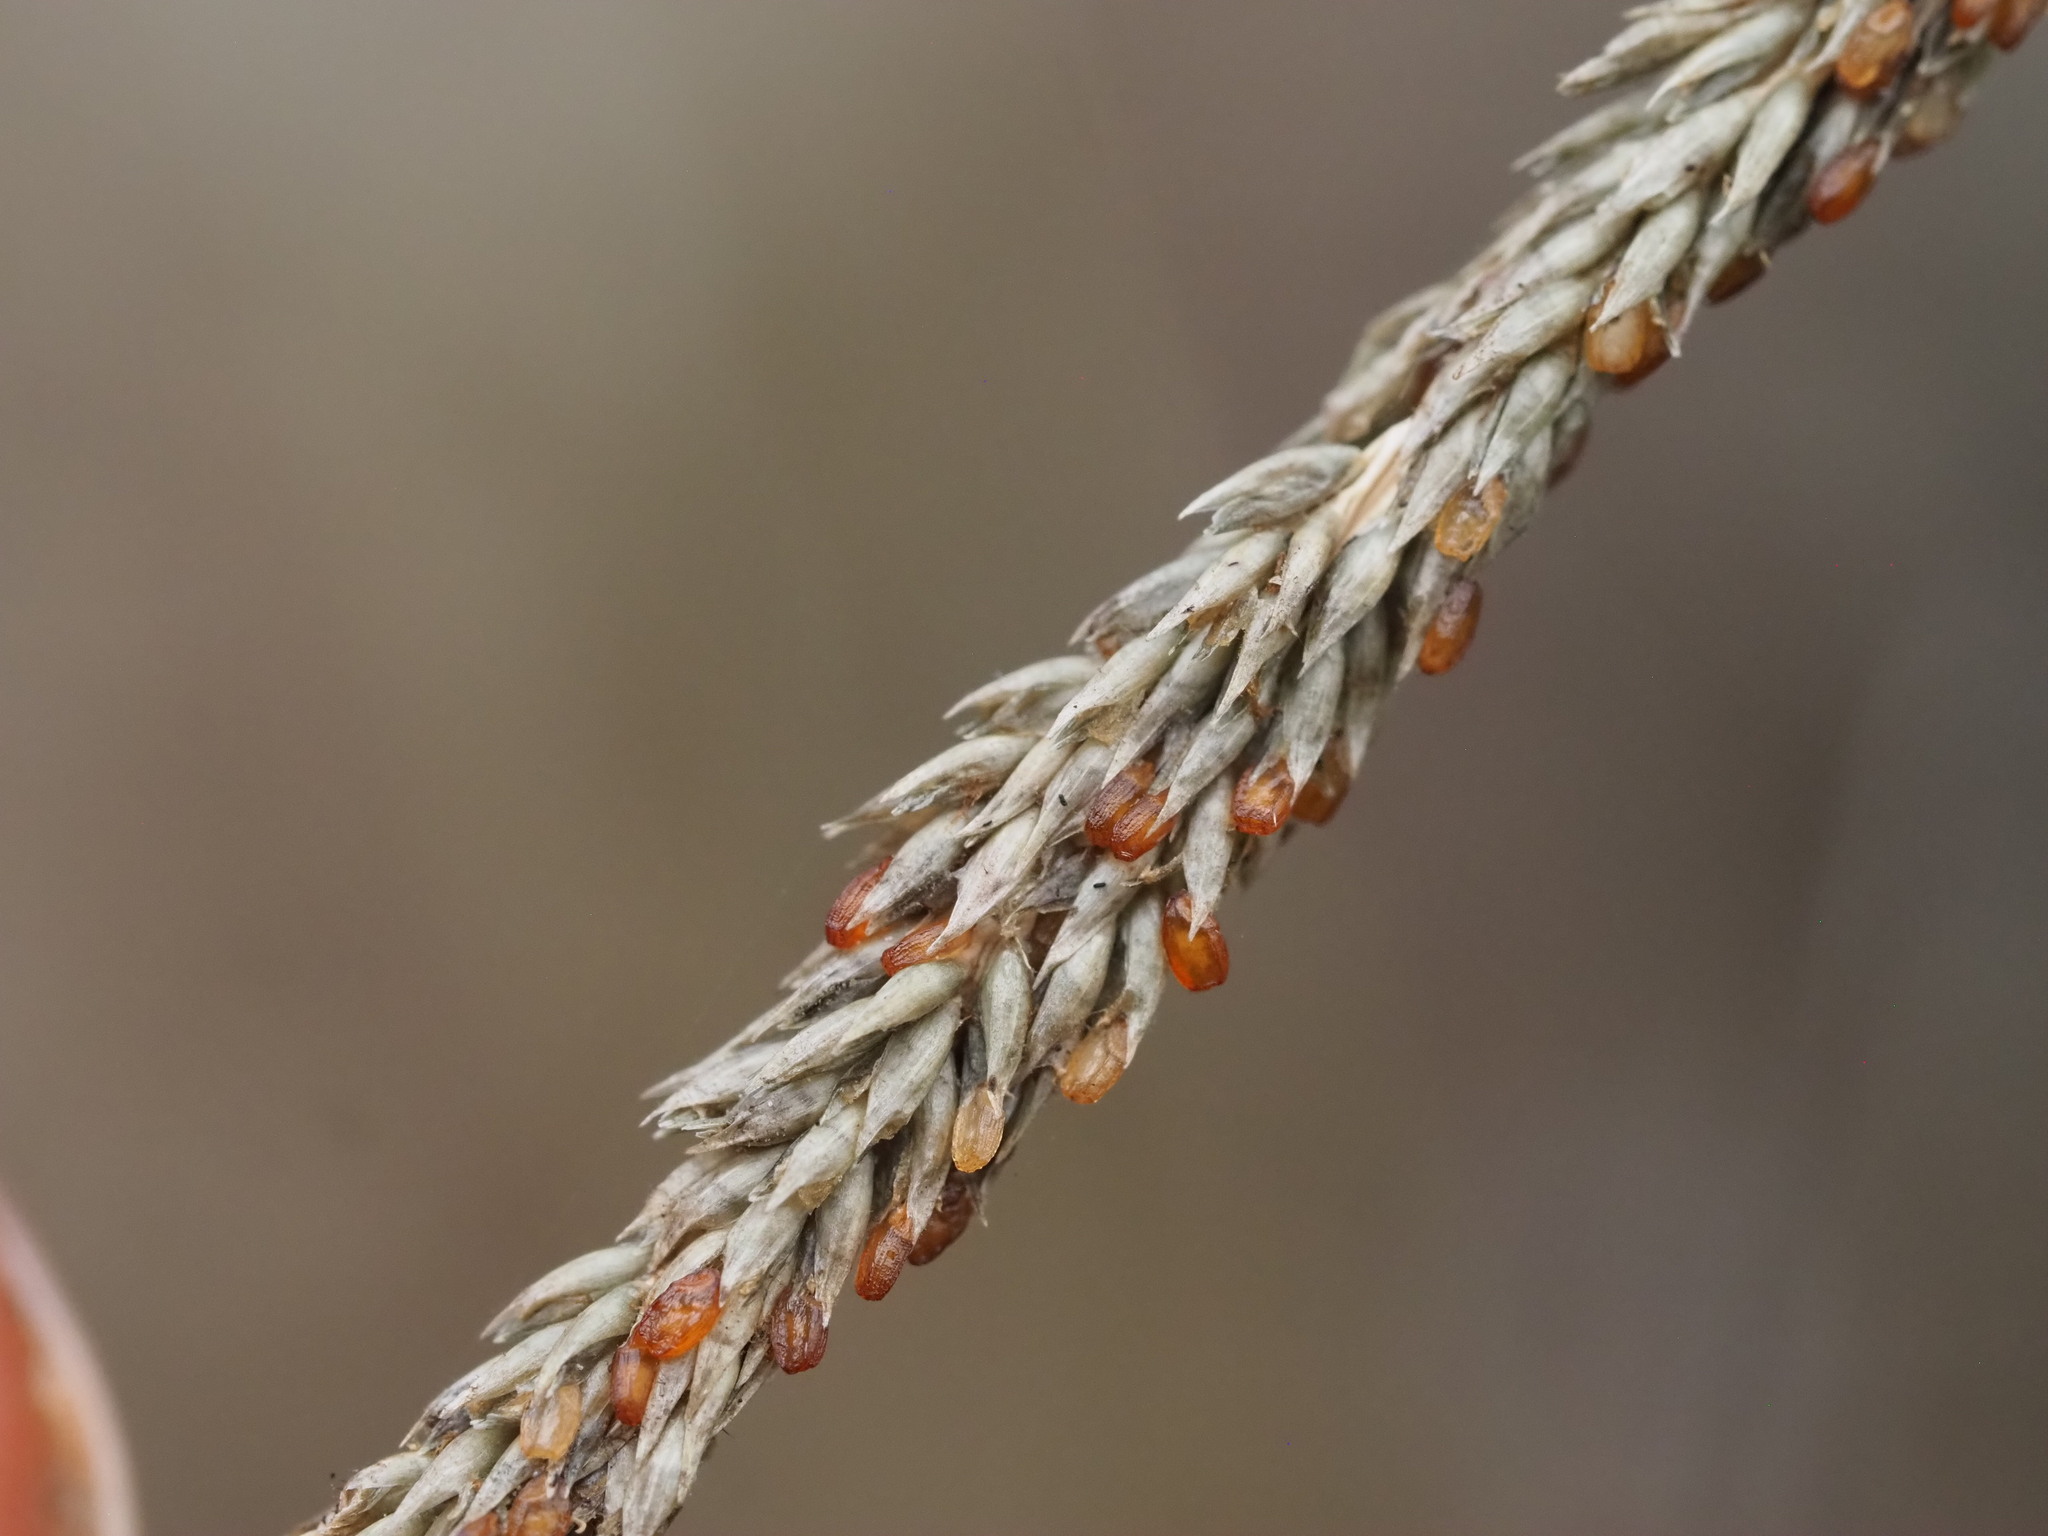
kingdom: Plantae
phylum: Tracheophyta
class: Liliopsida
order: Poales
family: Poaceae
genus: Sporobolus
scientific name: Sporobolus africanus
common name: African dropseed
